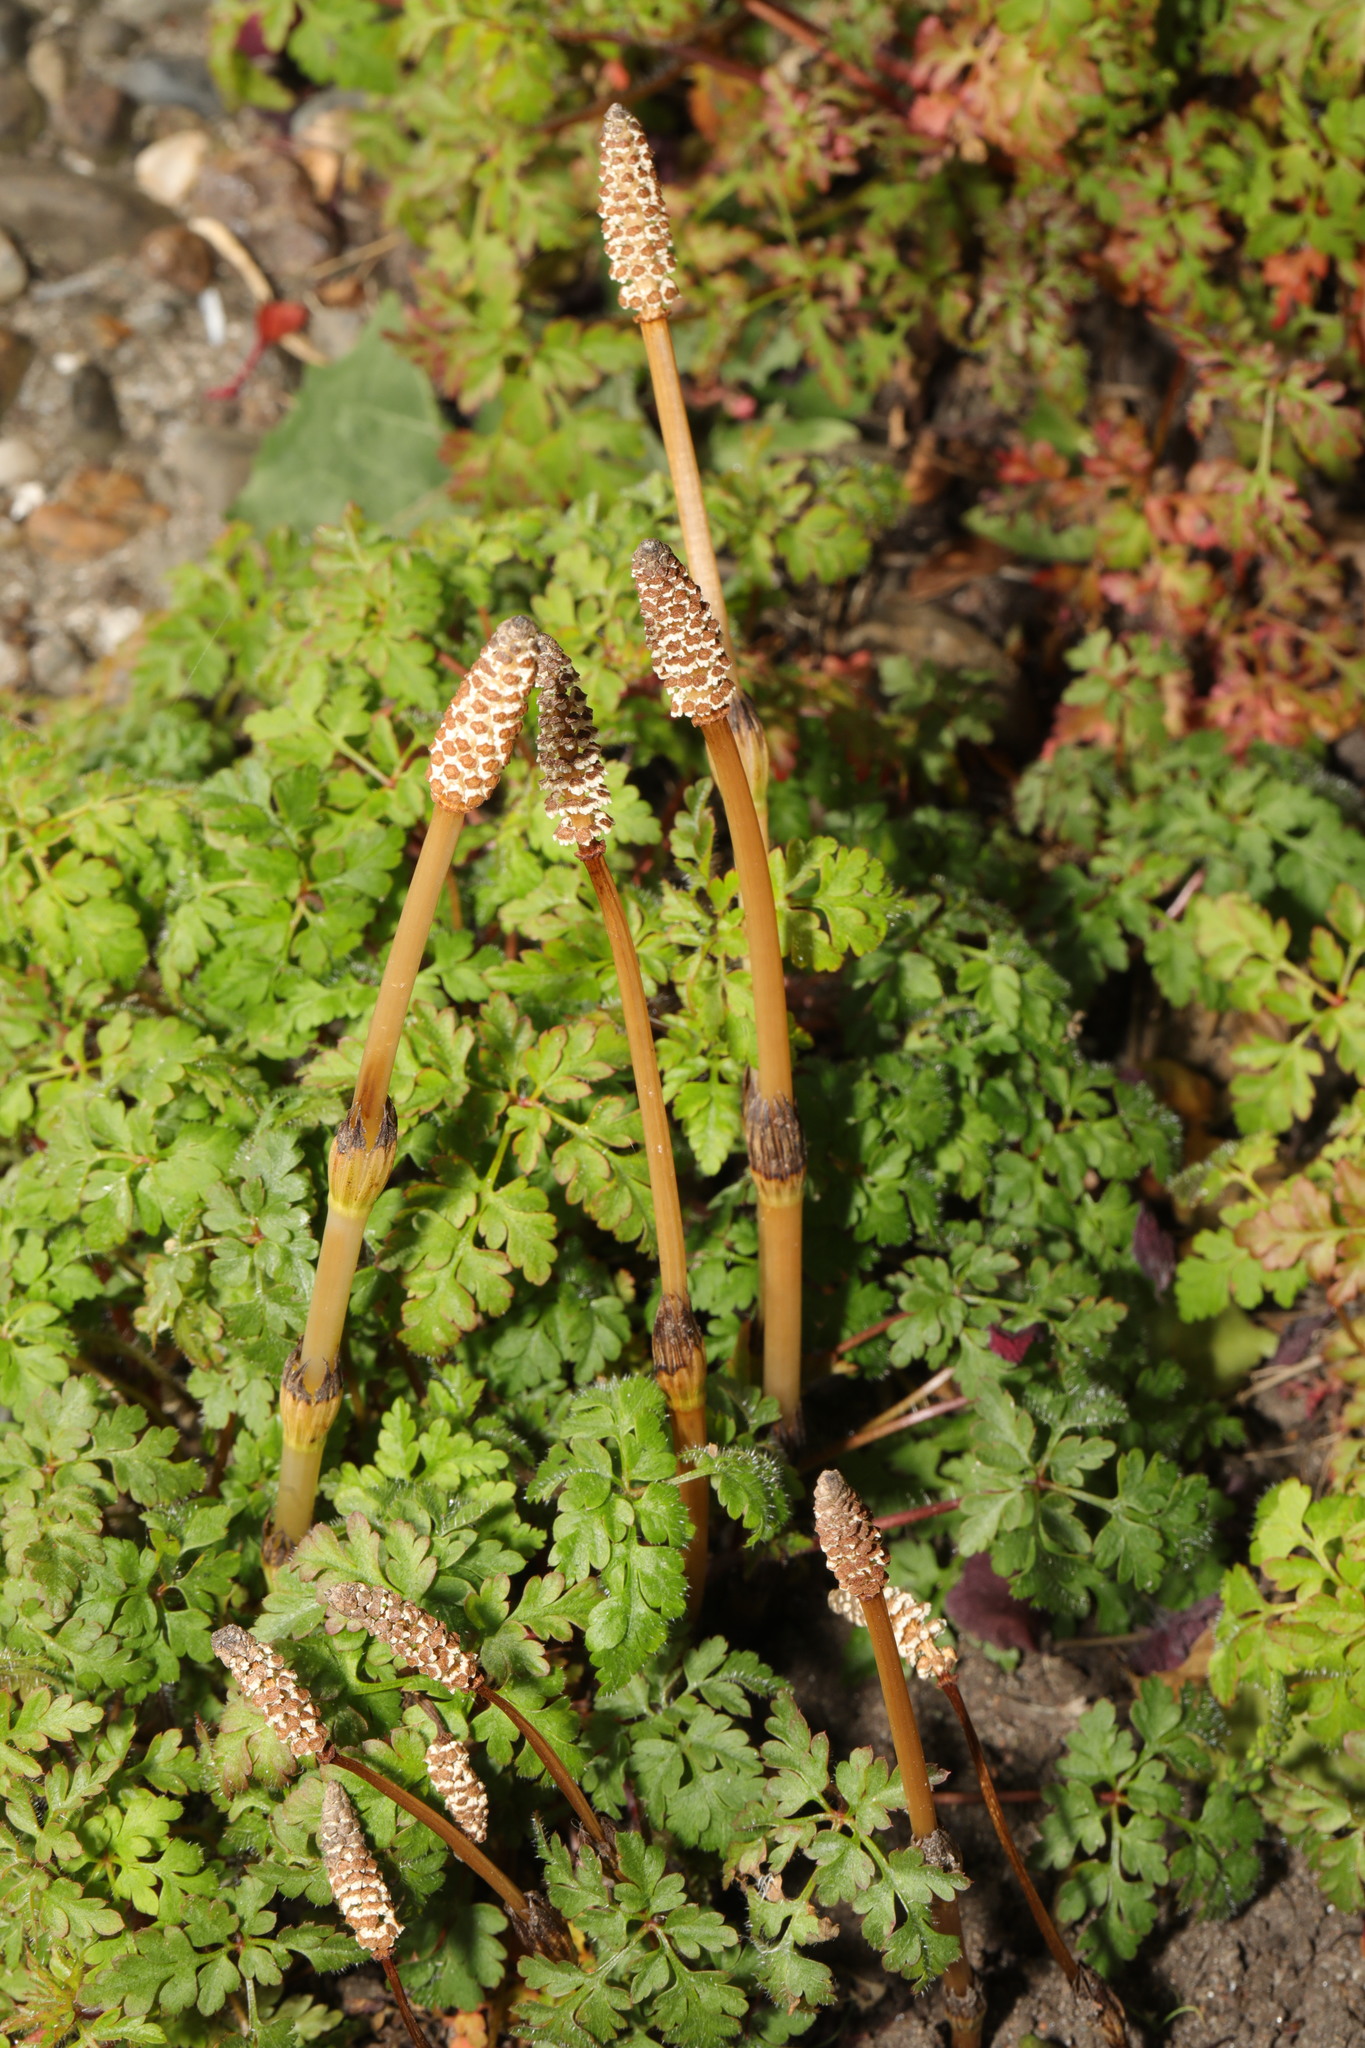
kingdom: Plantae
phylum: Tracheophyta
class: Polypodiopsida
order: Equisetales
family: Equisetaceae
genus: Equisetum
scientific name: Equisetum arvense
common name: Field horsetail
